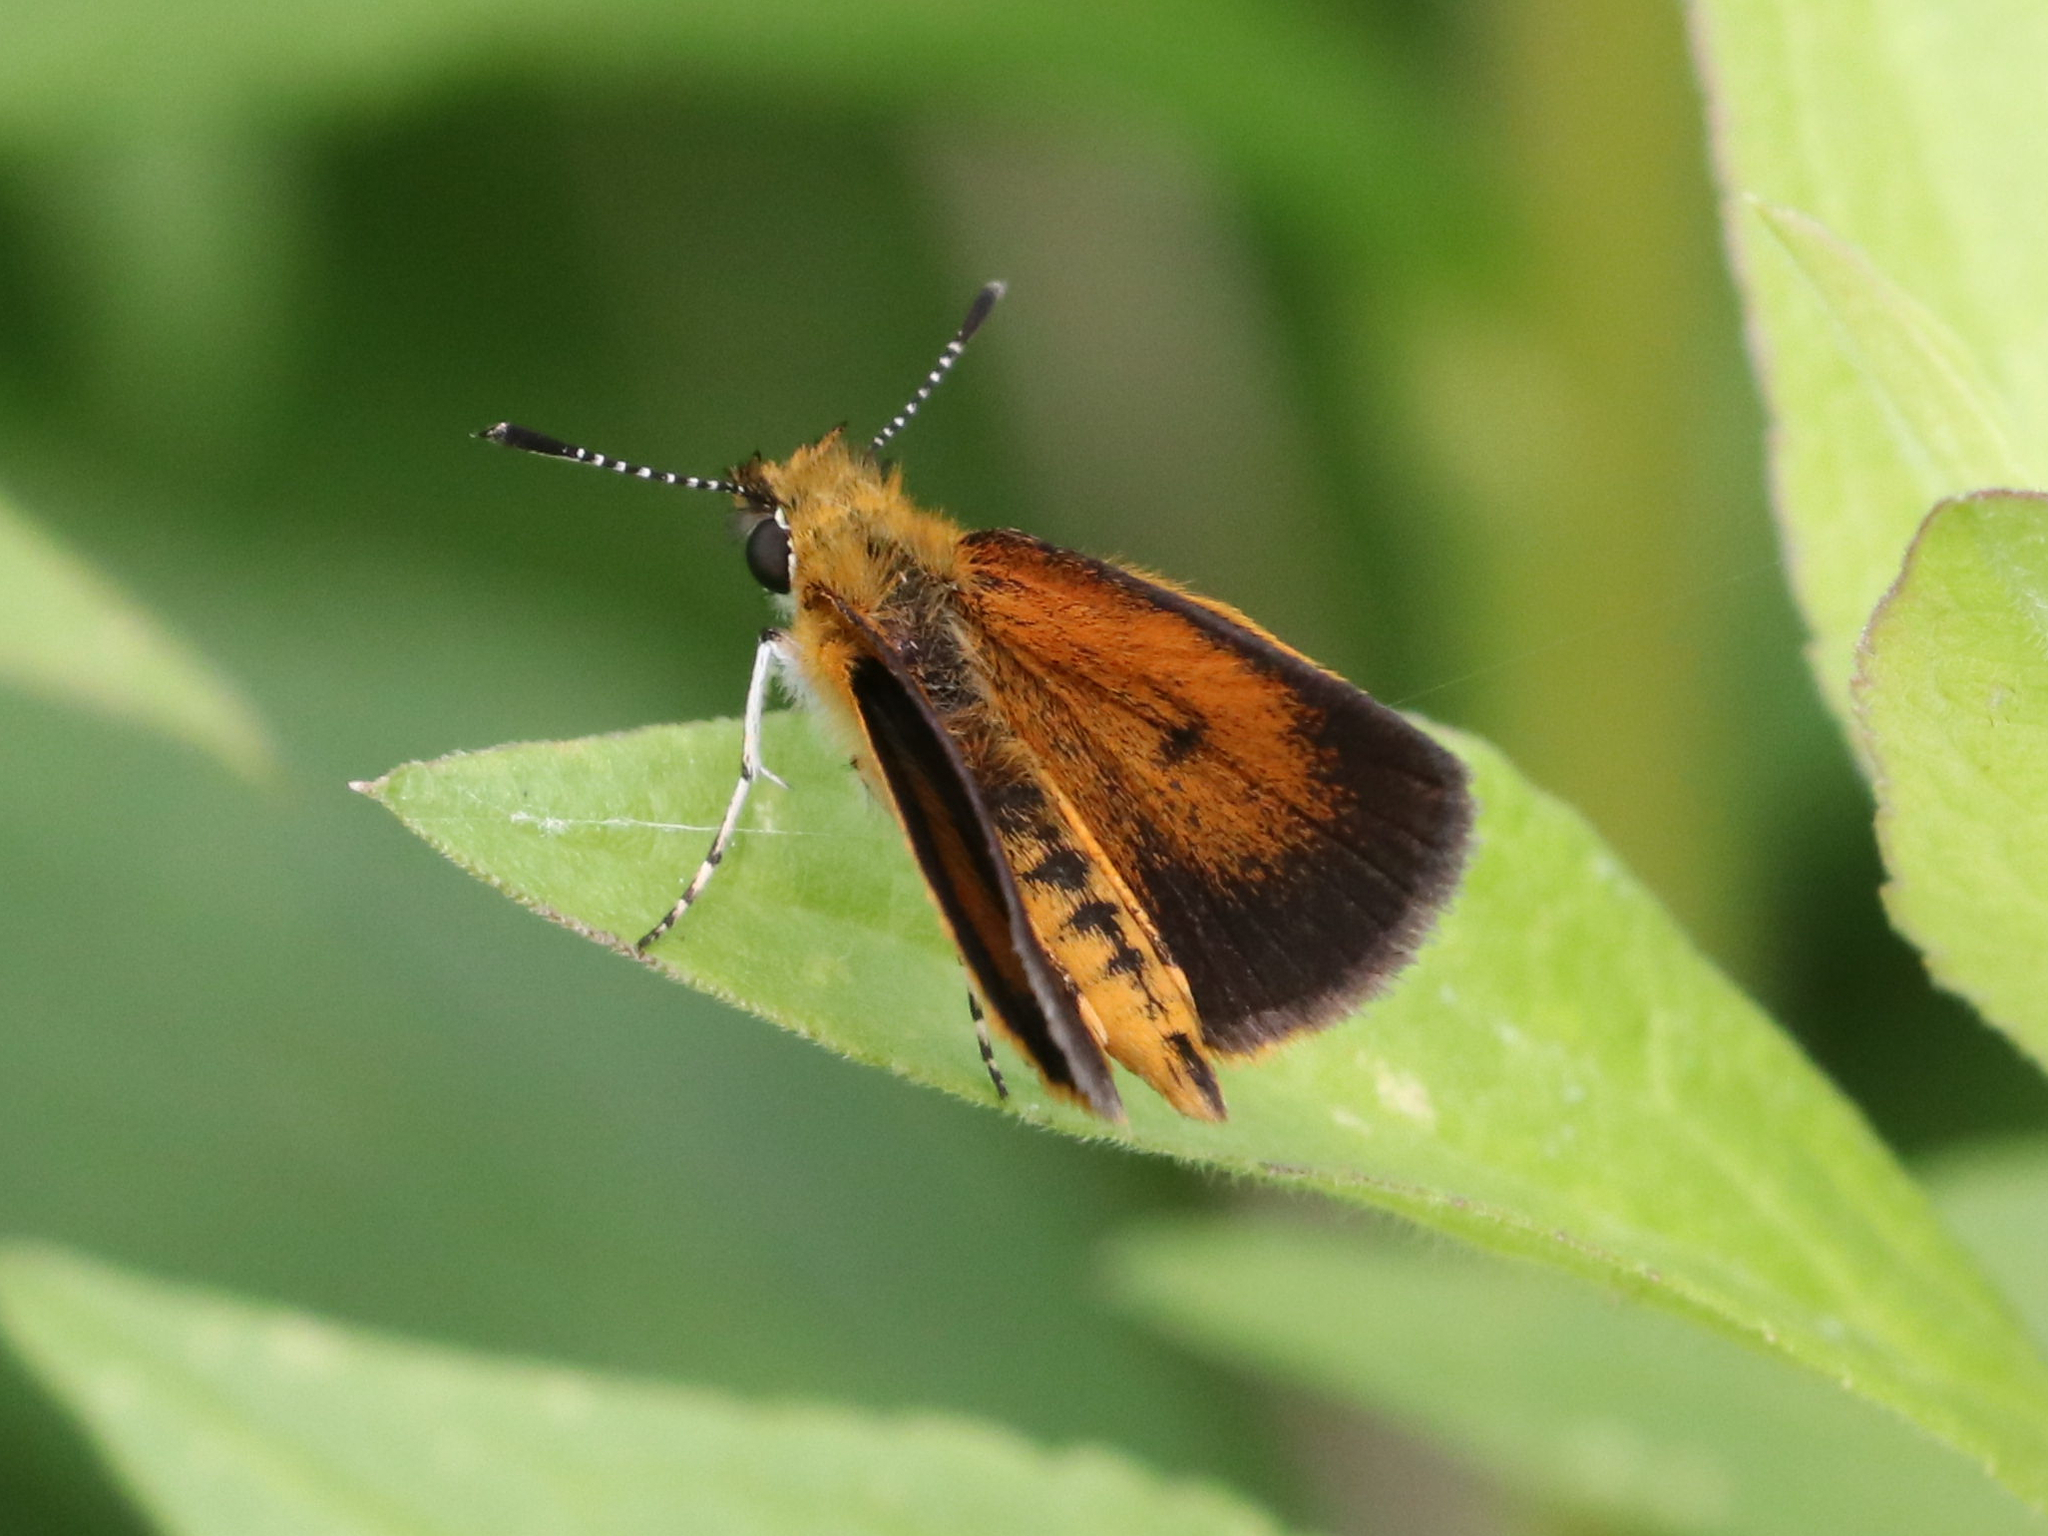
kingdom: Animalia
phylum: Arthropoda
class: Insecta
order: Lepidoptera
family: Hesperiidae
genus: Ancyloxypha
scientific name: Ancyloxypha numitor
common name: Least skipper
